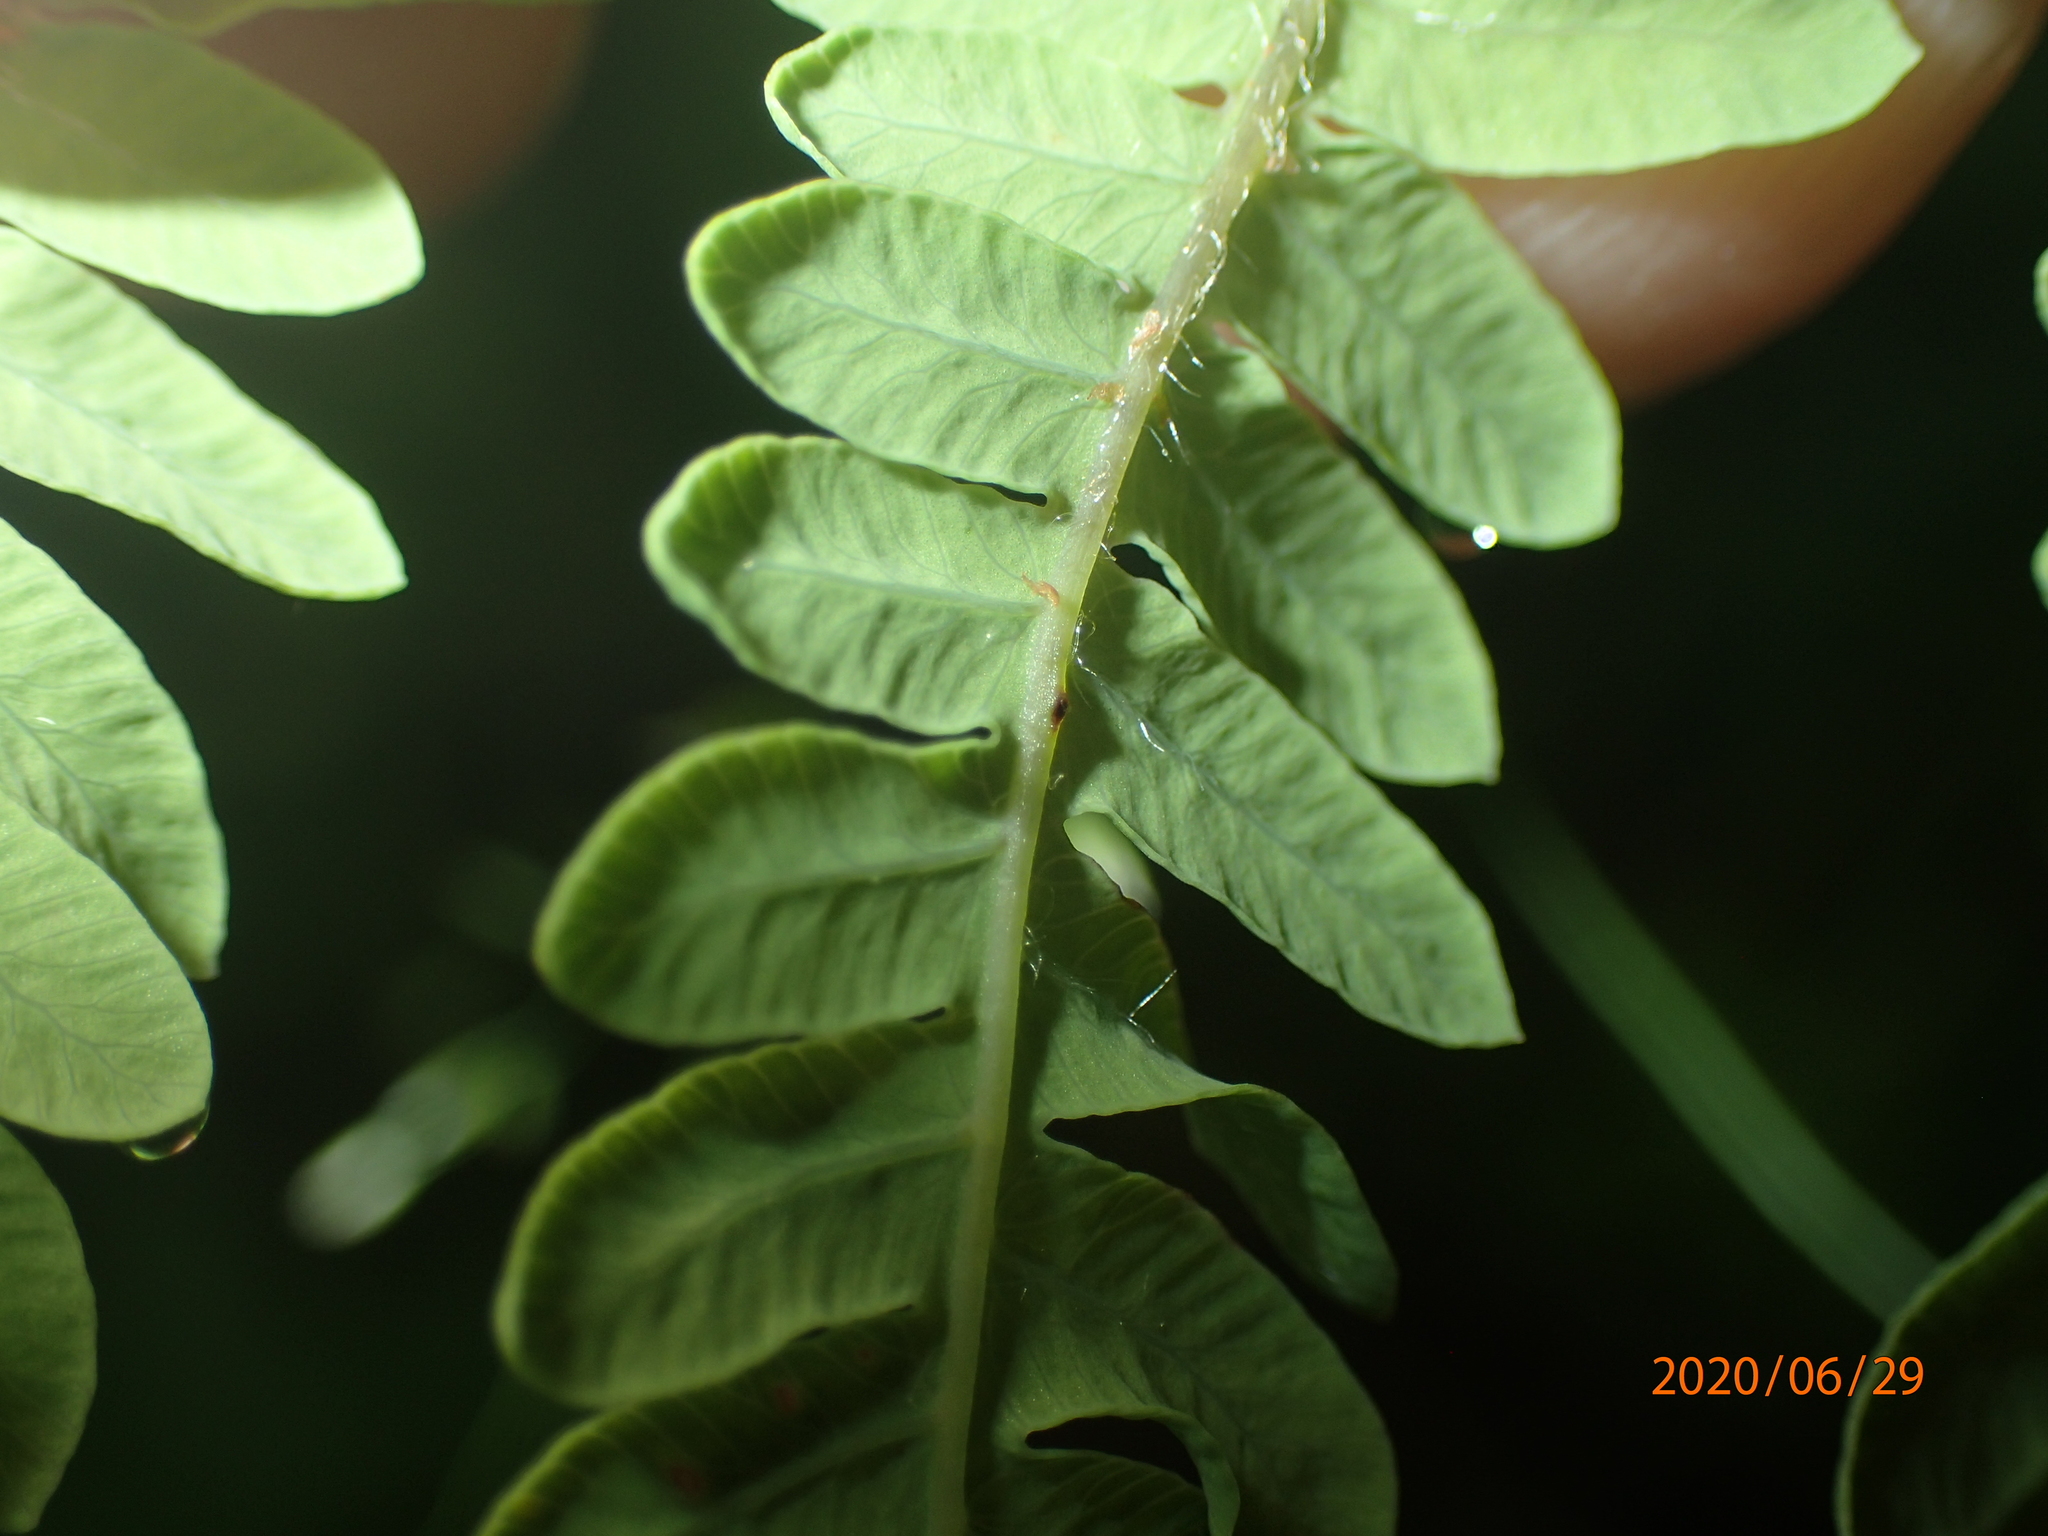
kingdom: Plantae
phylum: Tracheophyta
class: Polypodiopsida
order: Polypodiales
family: Thelypteridaceae
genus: Thelypteris
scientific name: Thelypteris palustris
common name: Marsh fern
